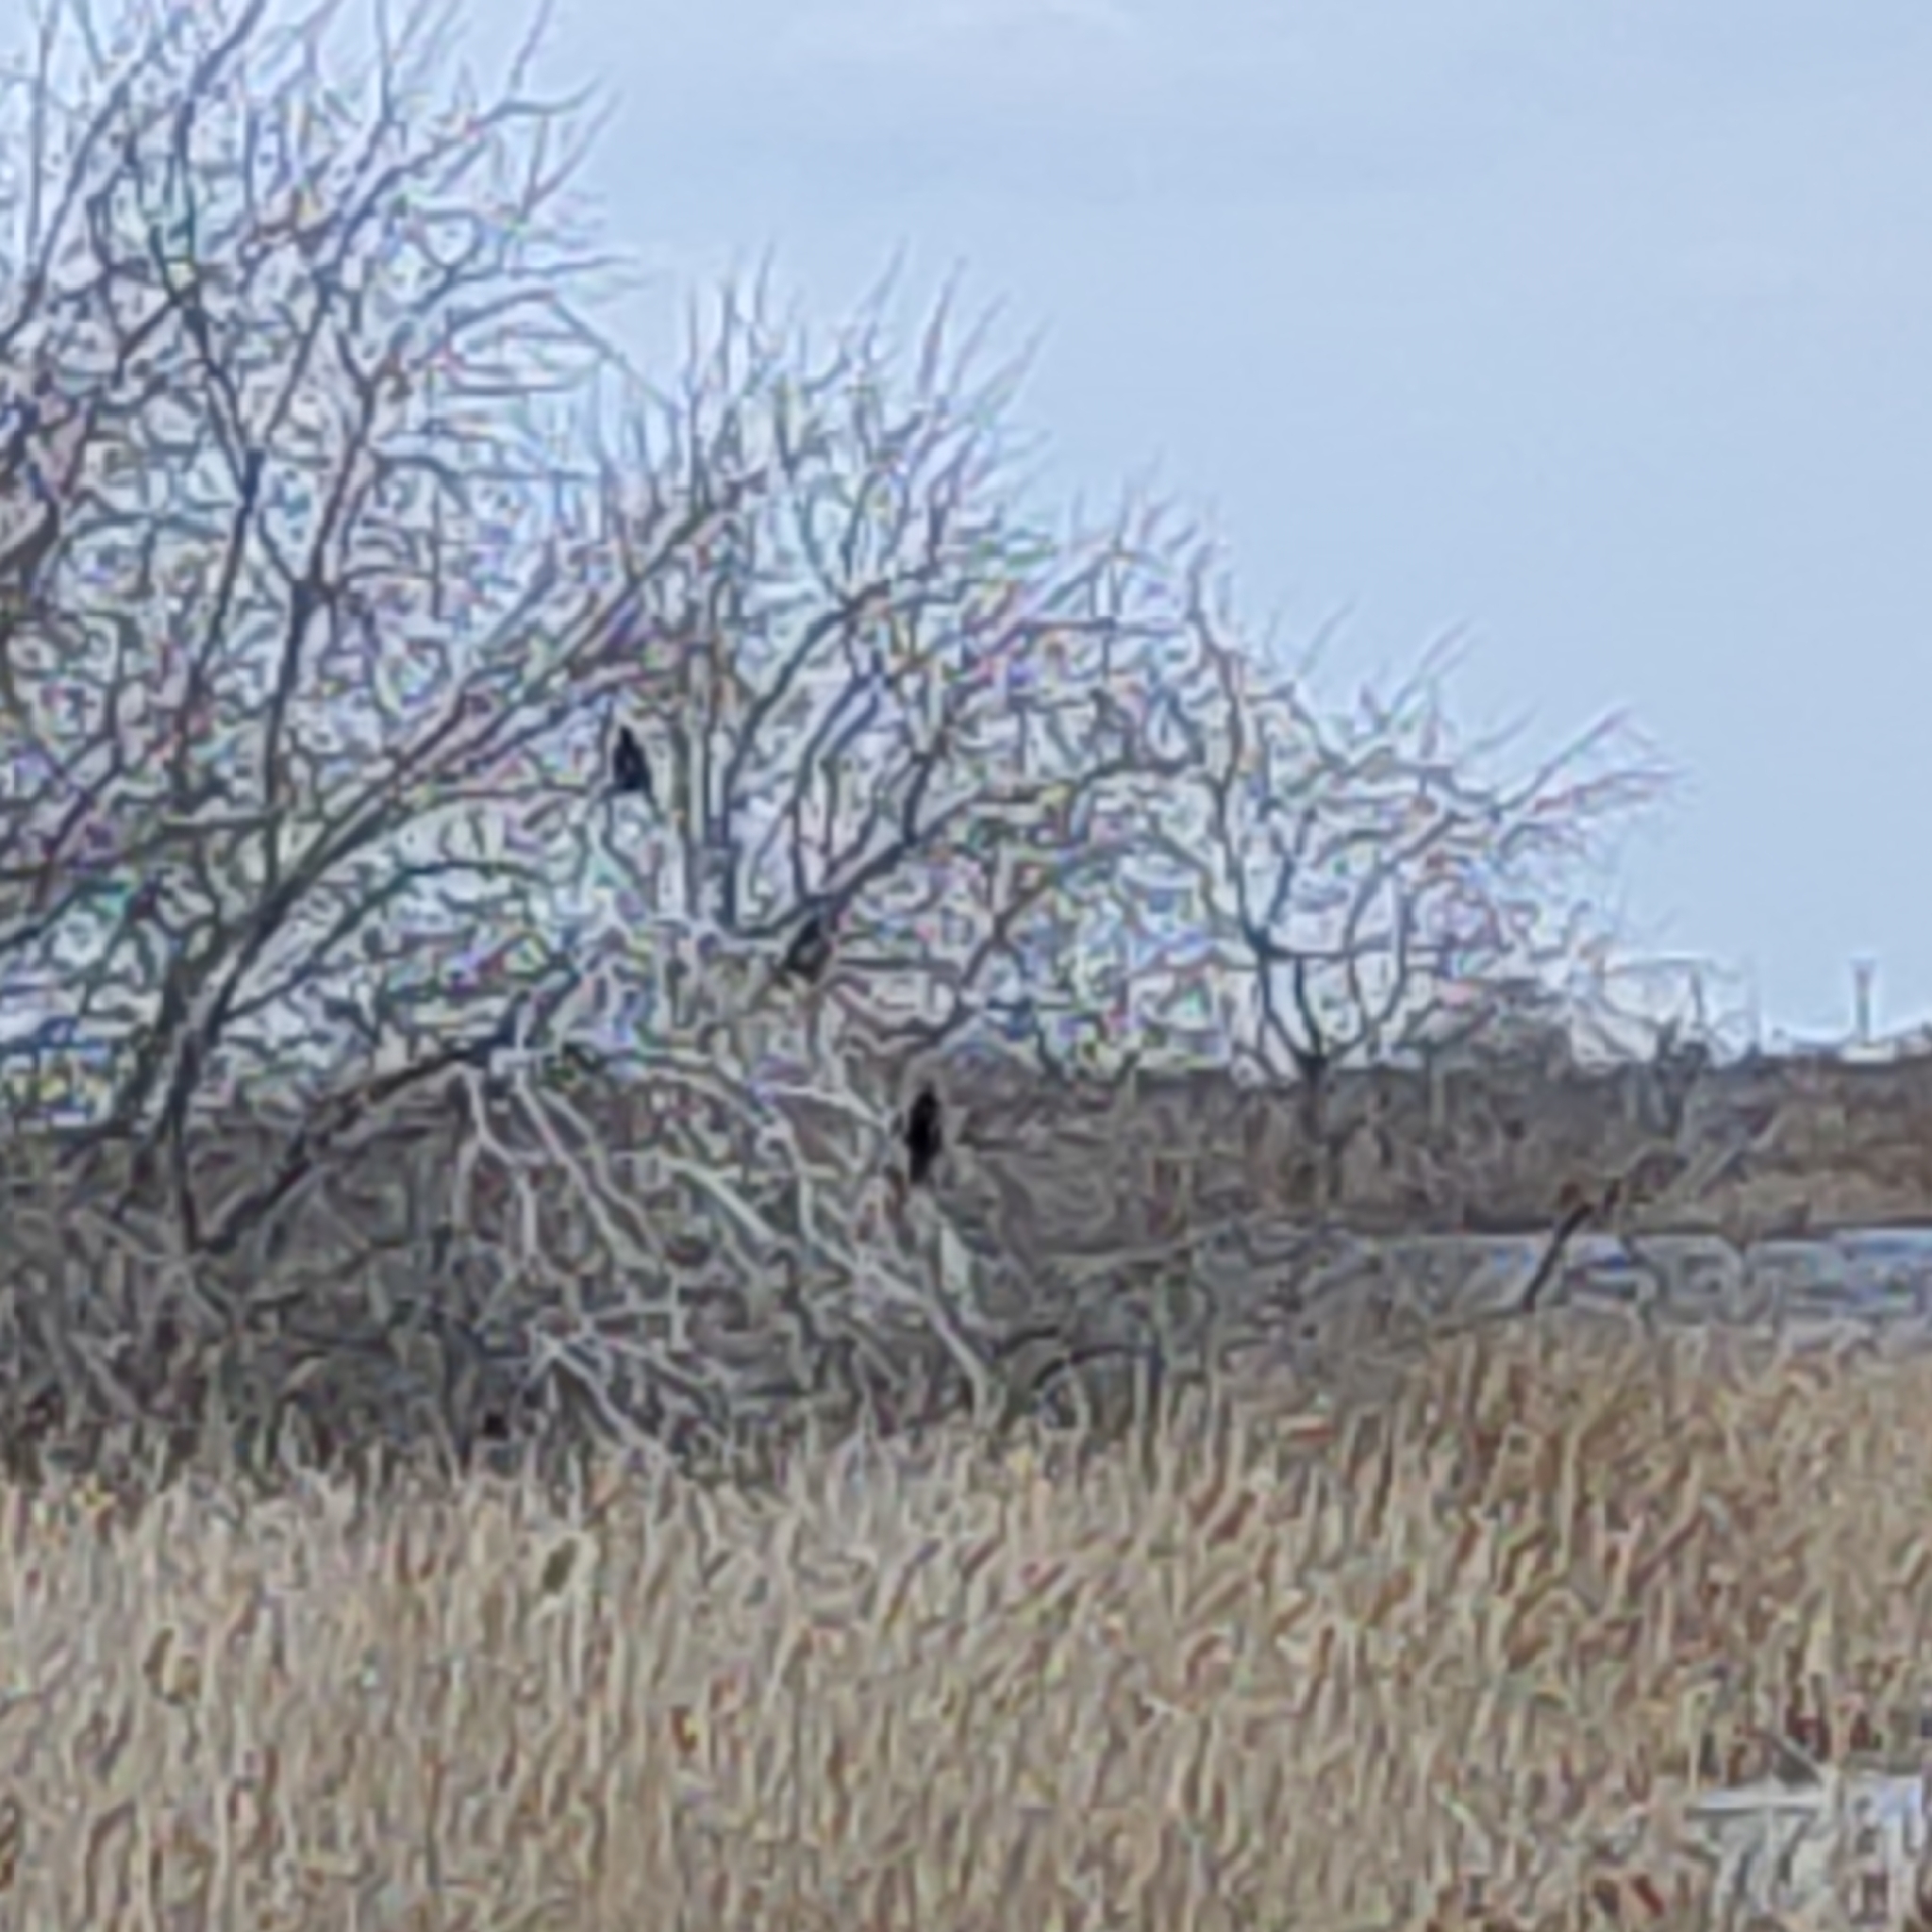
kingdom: Animalia
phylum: Chordata
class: Aves
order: Suliformes
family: Phalacrocoracidae
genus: Microcarbo
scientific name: Microcarbo pygmaeus
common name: Pygmy cormorant
